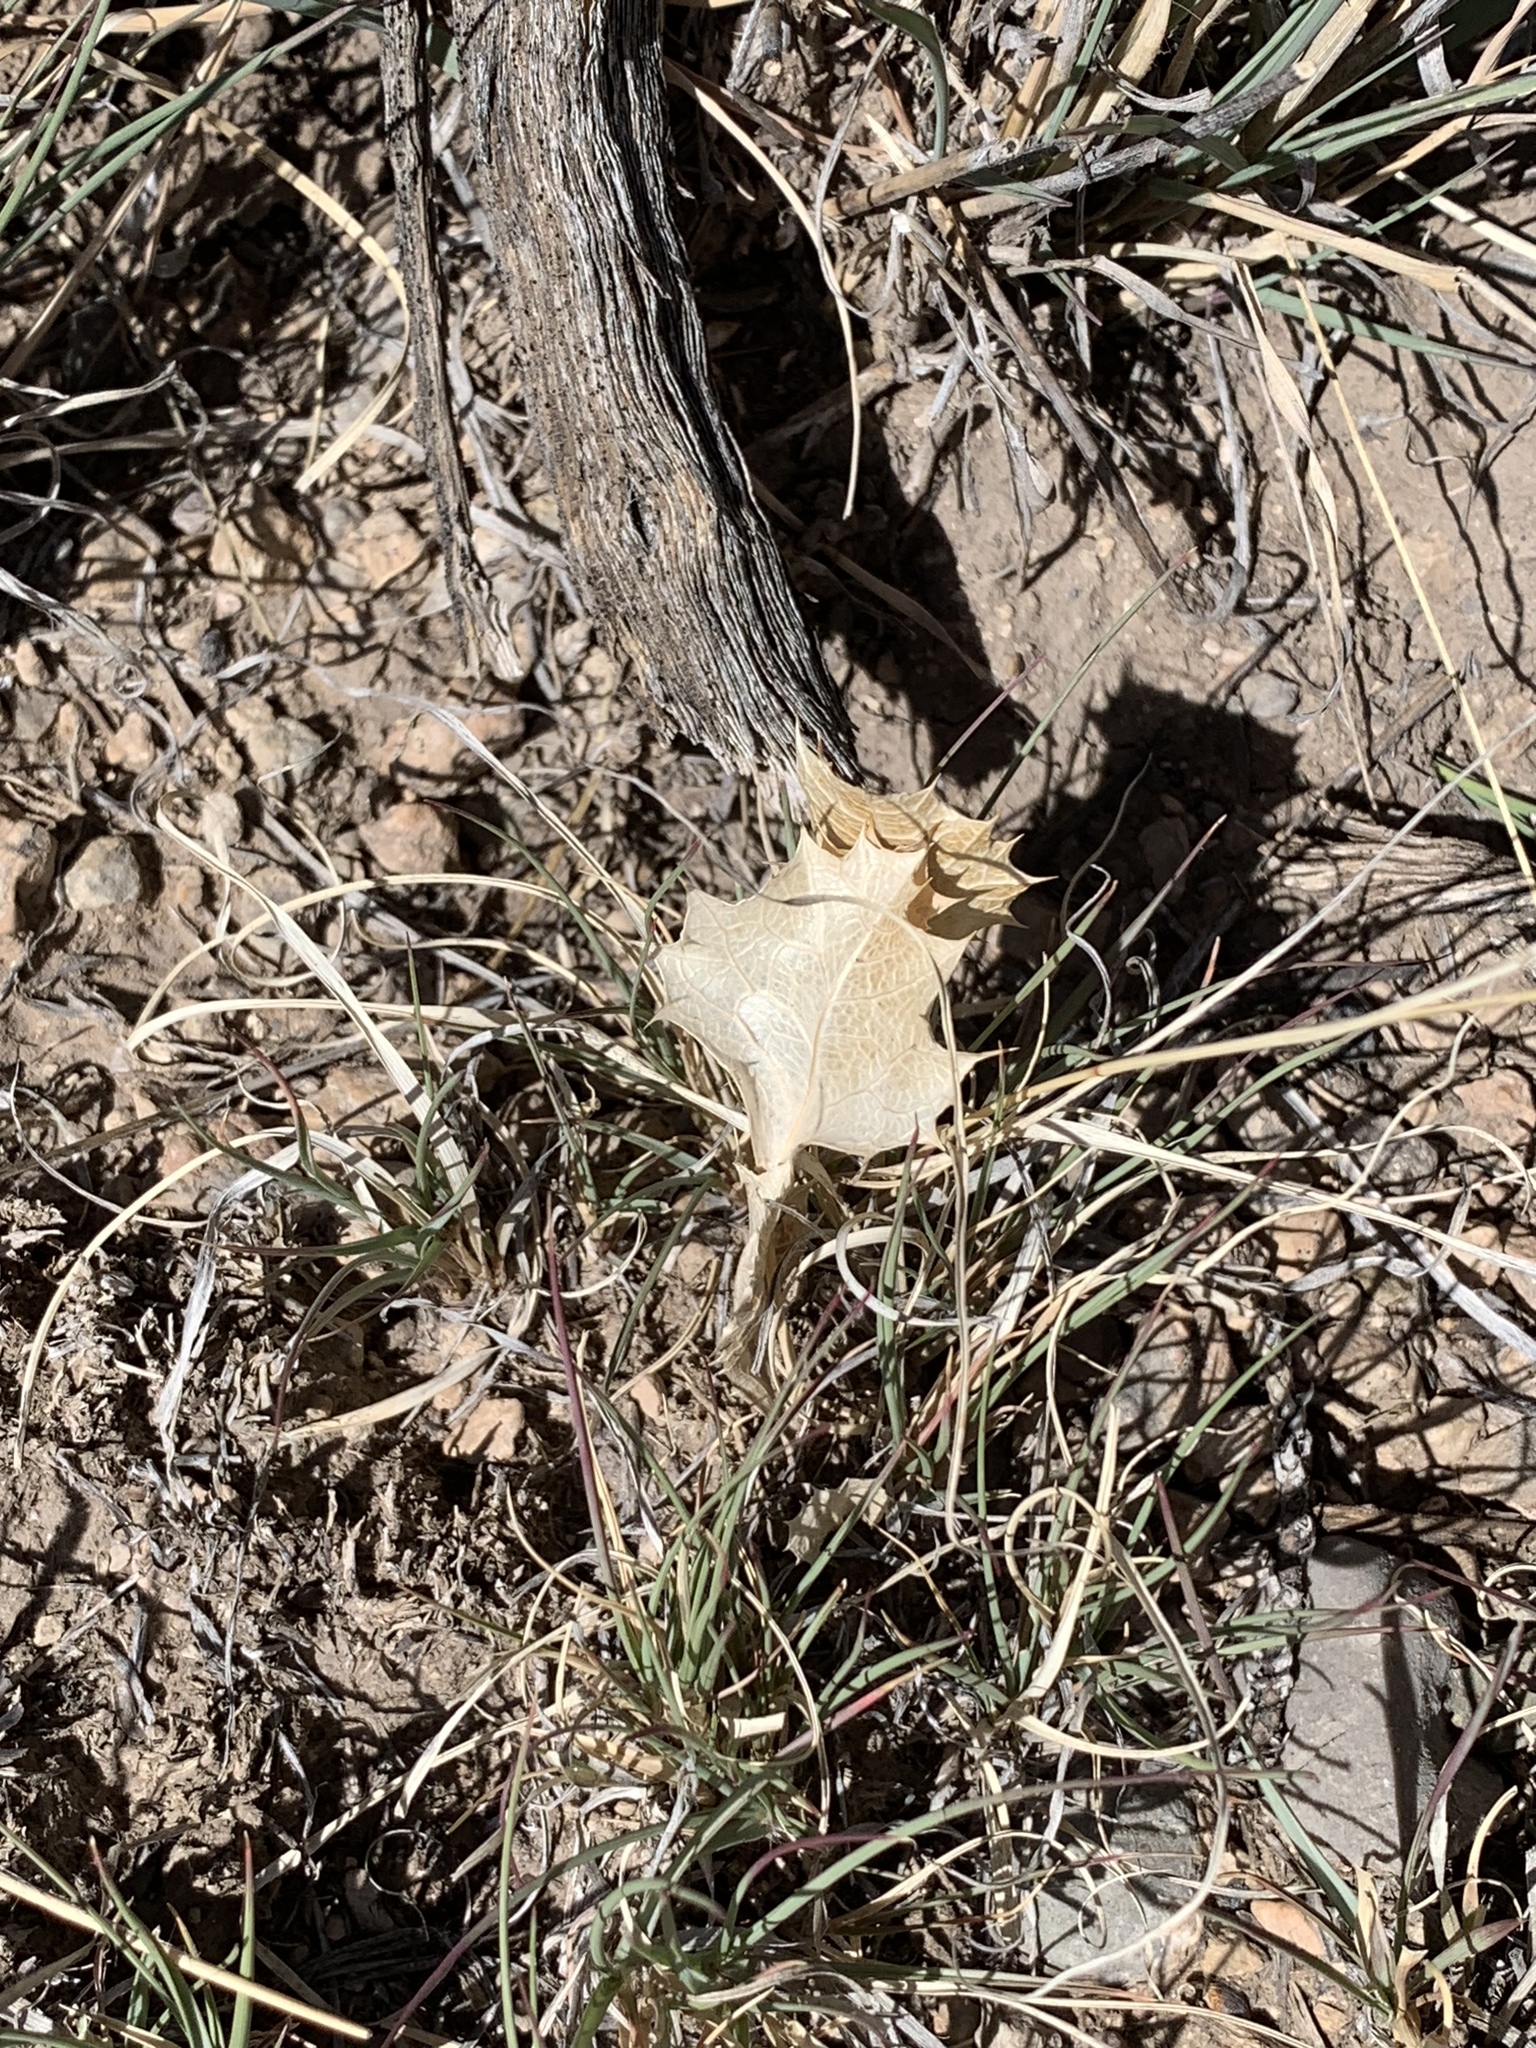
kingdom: Plantae
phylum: Tracheophyta
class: Magnoliopsida
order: Asterales
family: Asteraceae
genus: Acourtia
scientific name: Acourtia nana
